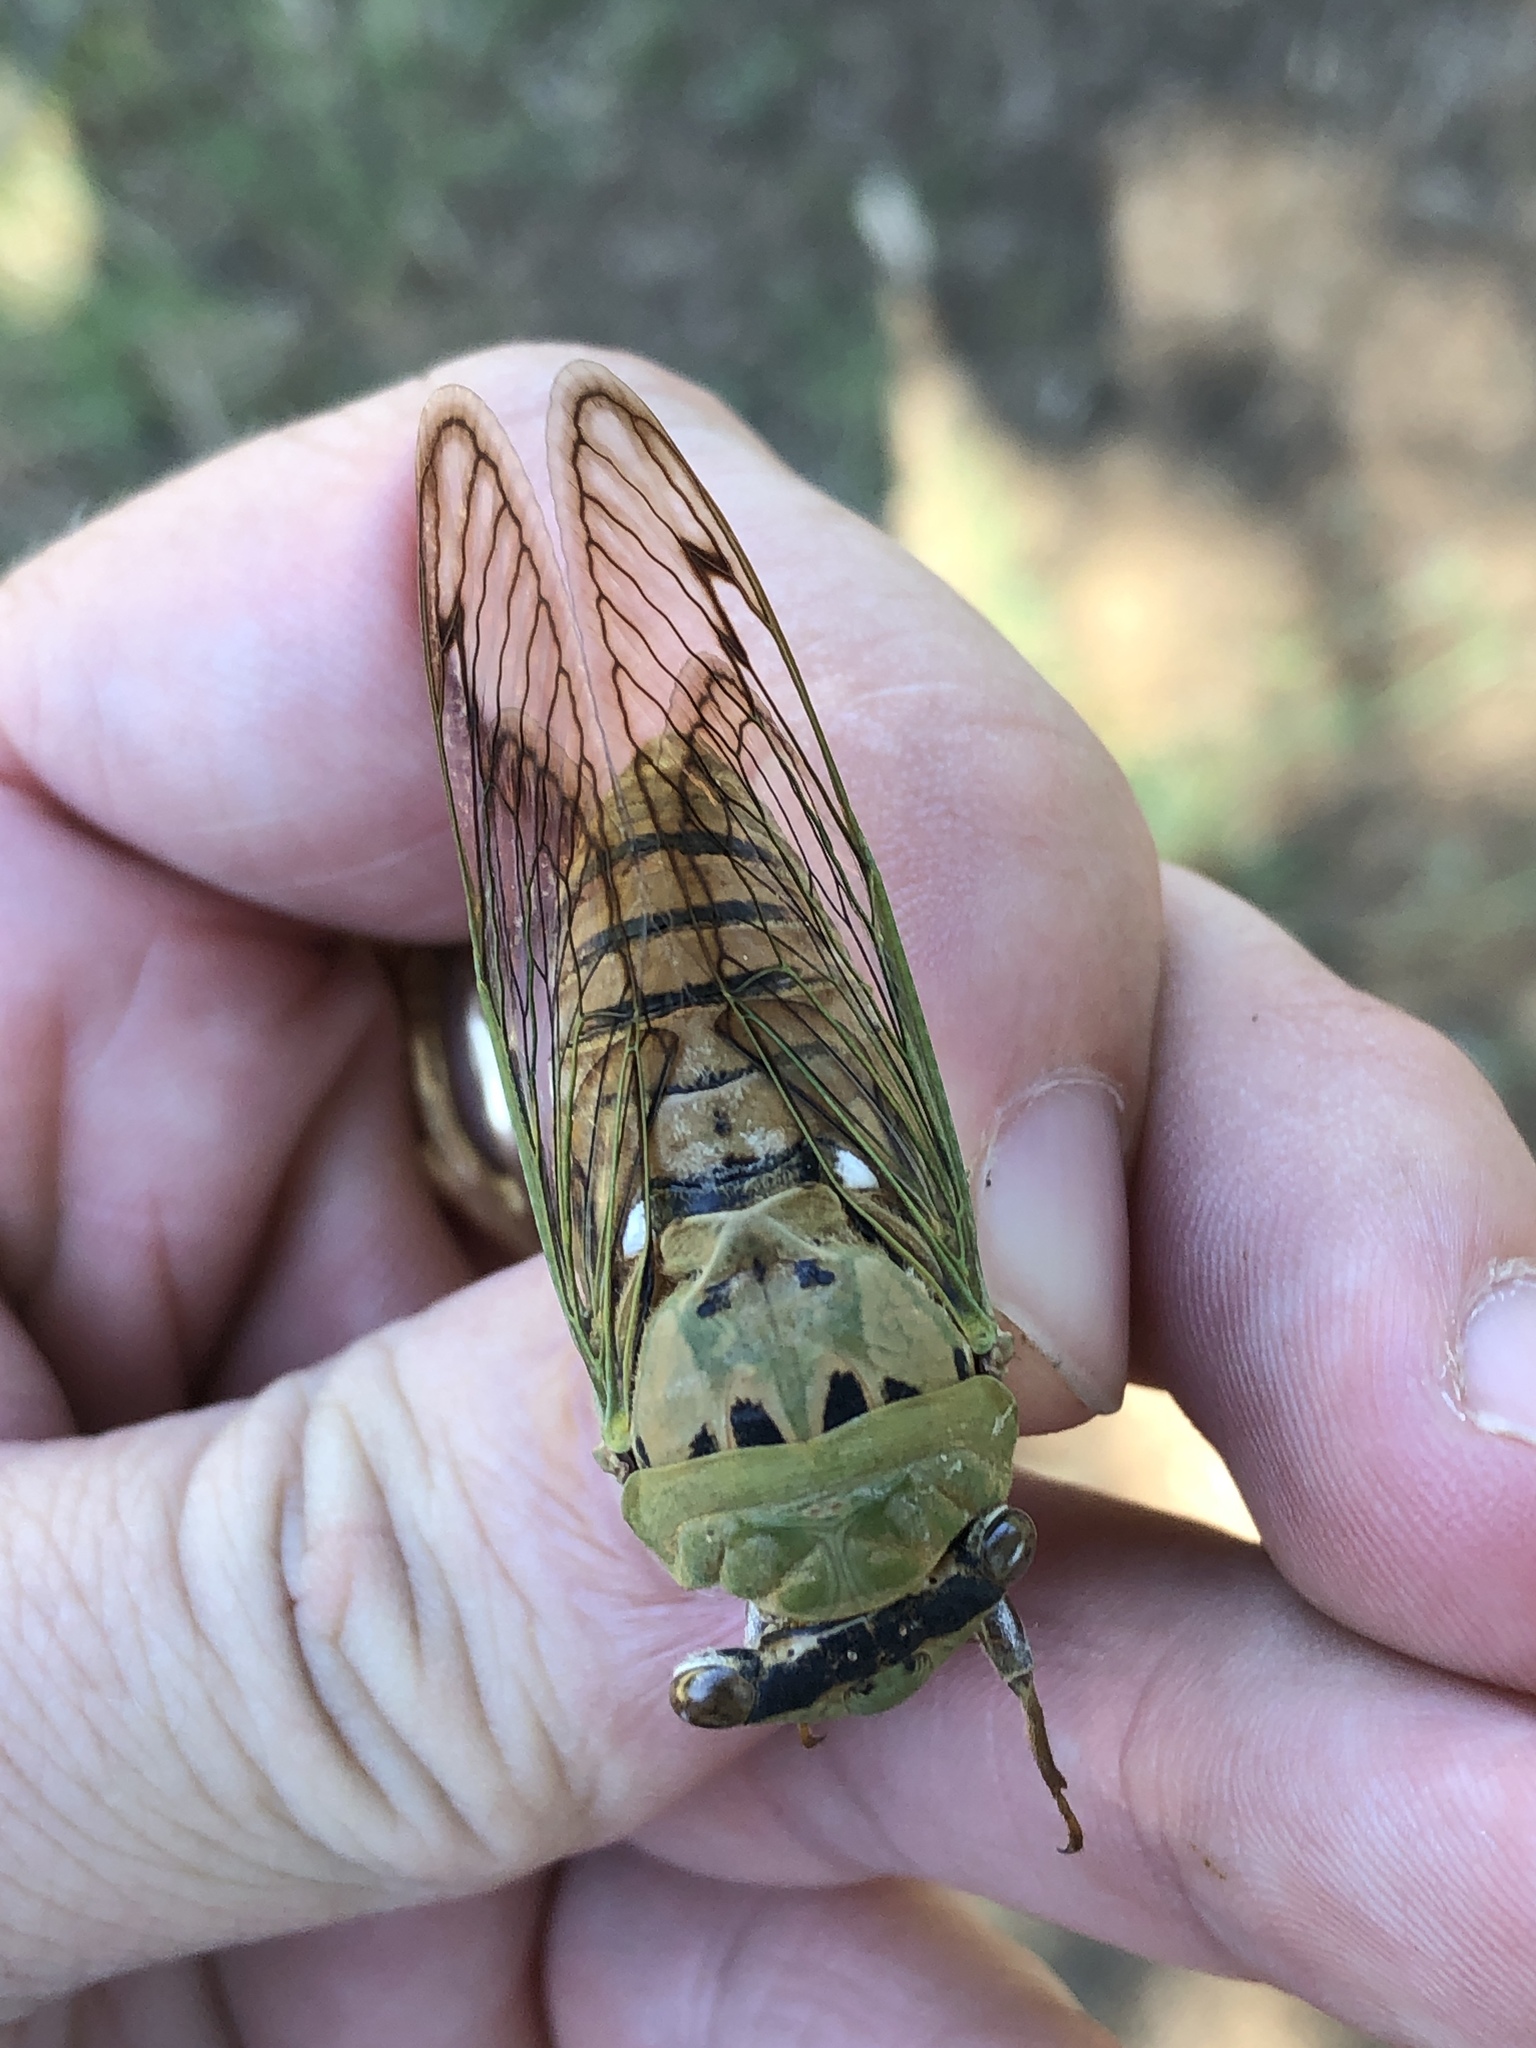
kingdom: Animalia
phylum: Arthropoda
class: Insecta
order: Hemiptera
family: Cicadidae
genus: Neotibicen
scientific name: Neotibicen superbus
